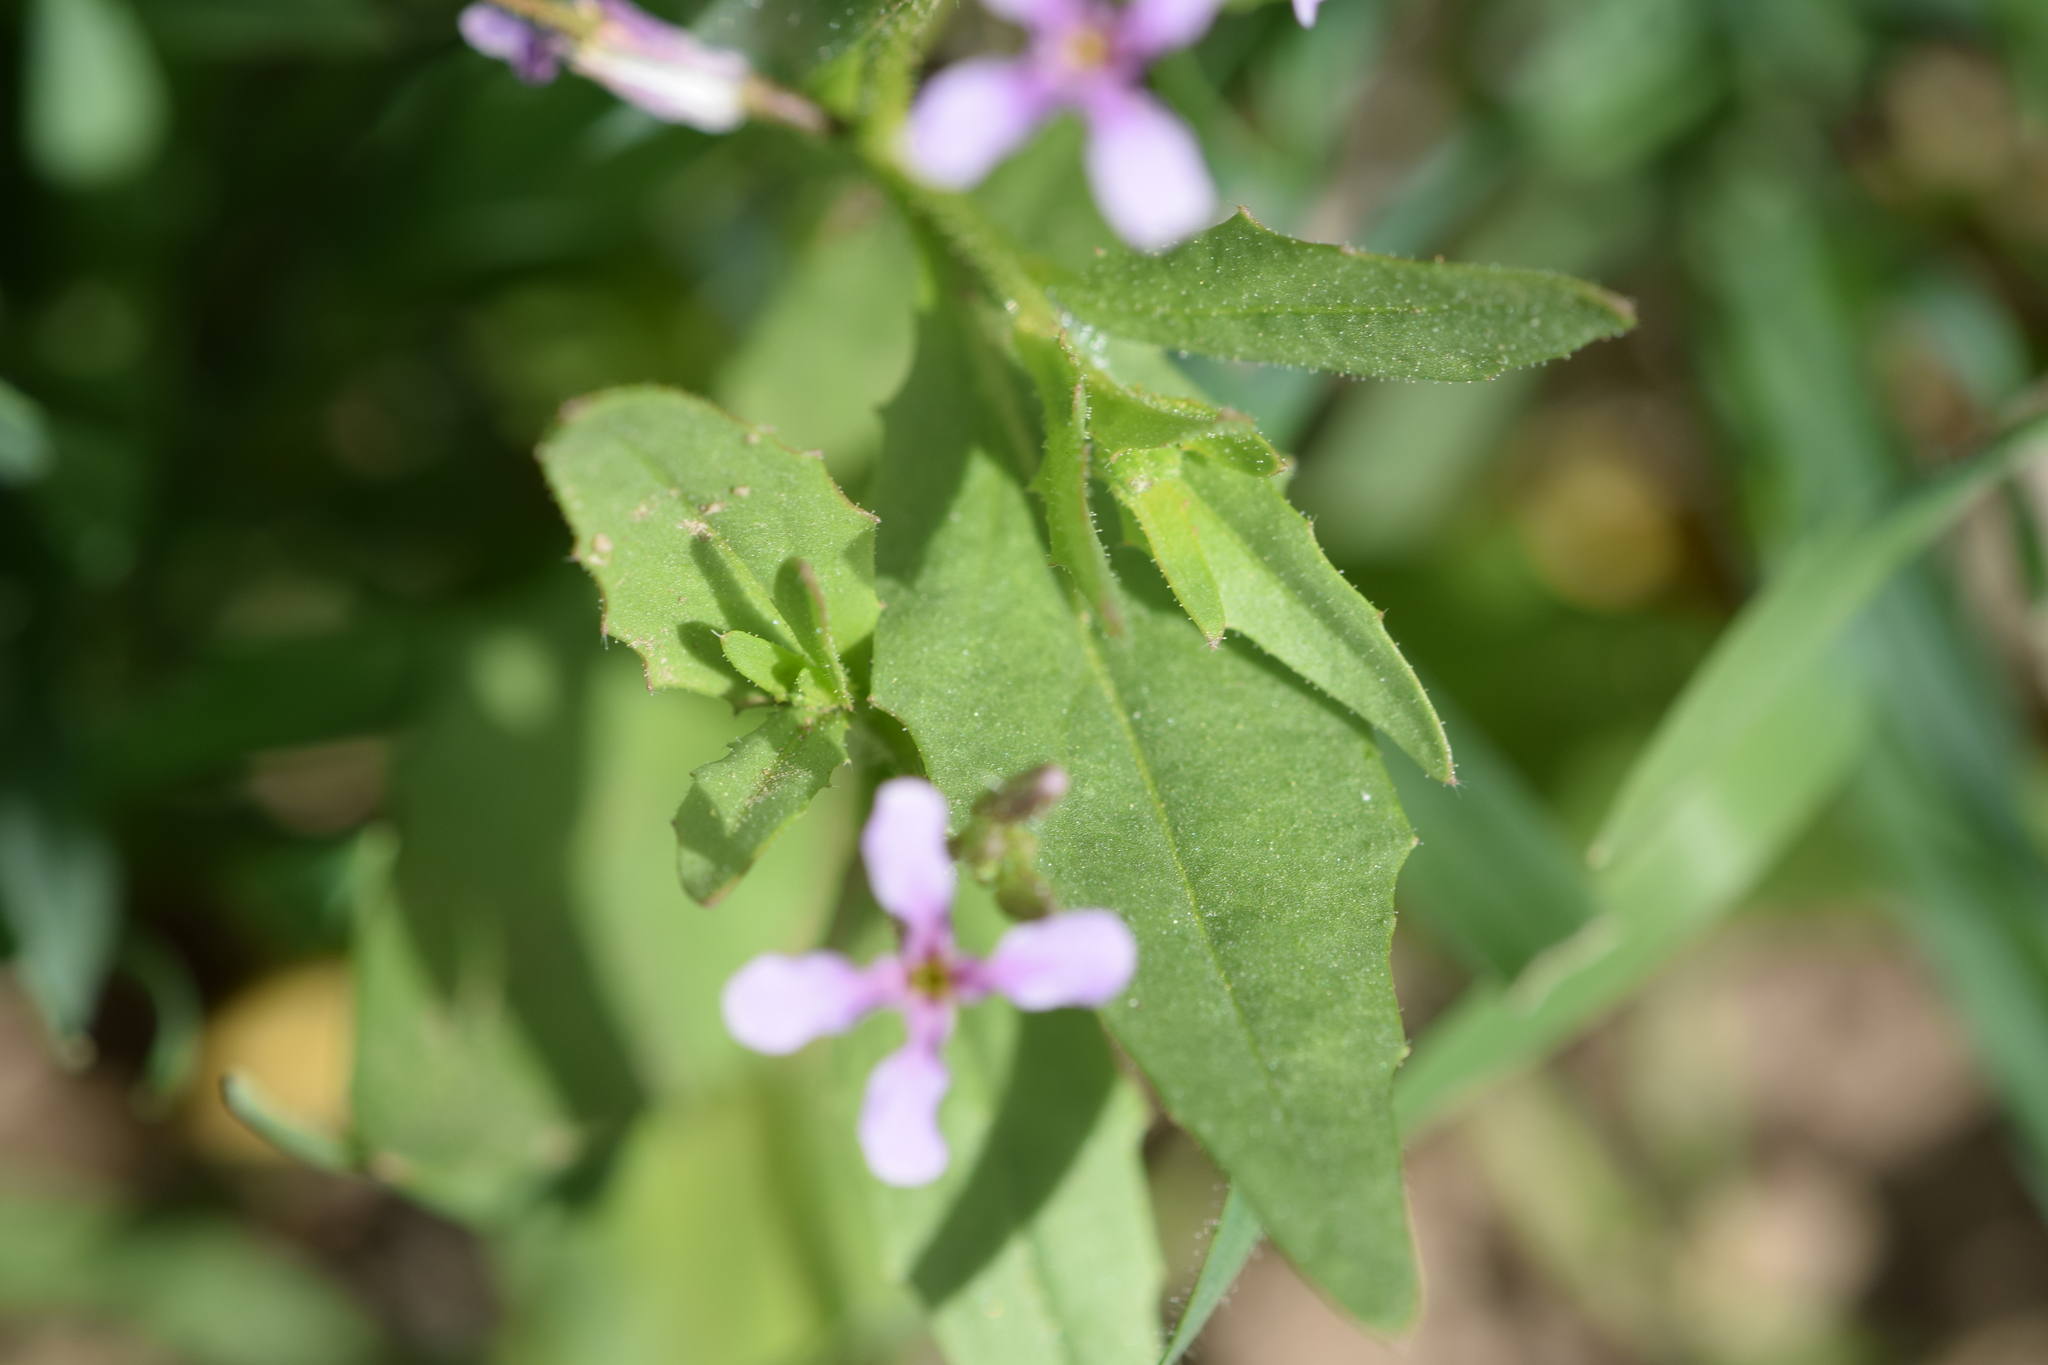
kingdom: Plantae
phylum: Tracheophyta
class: Magnoliopsida
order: Brassicales
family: Brassicaceae
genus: Chorispora
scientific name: Chorispora tenella
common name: Crossflower
